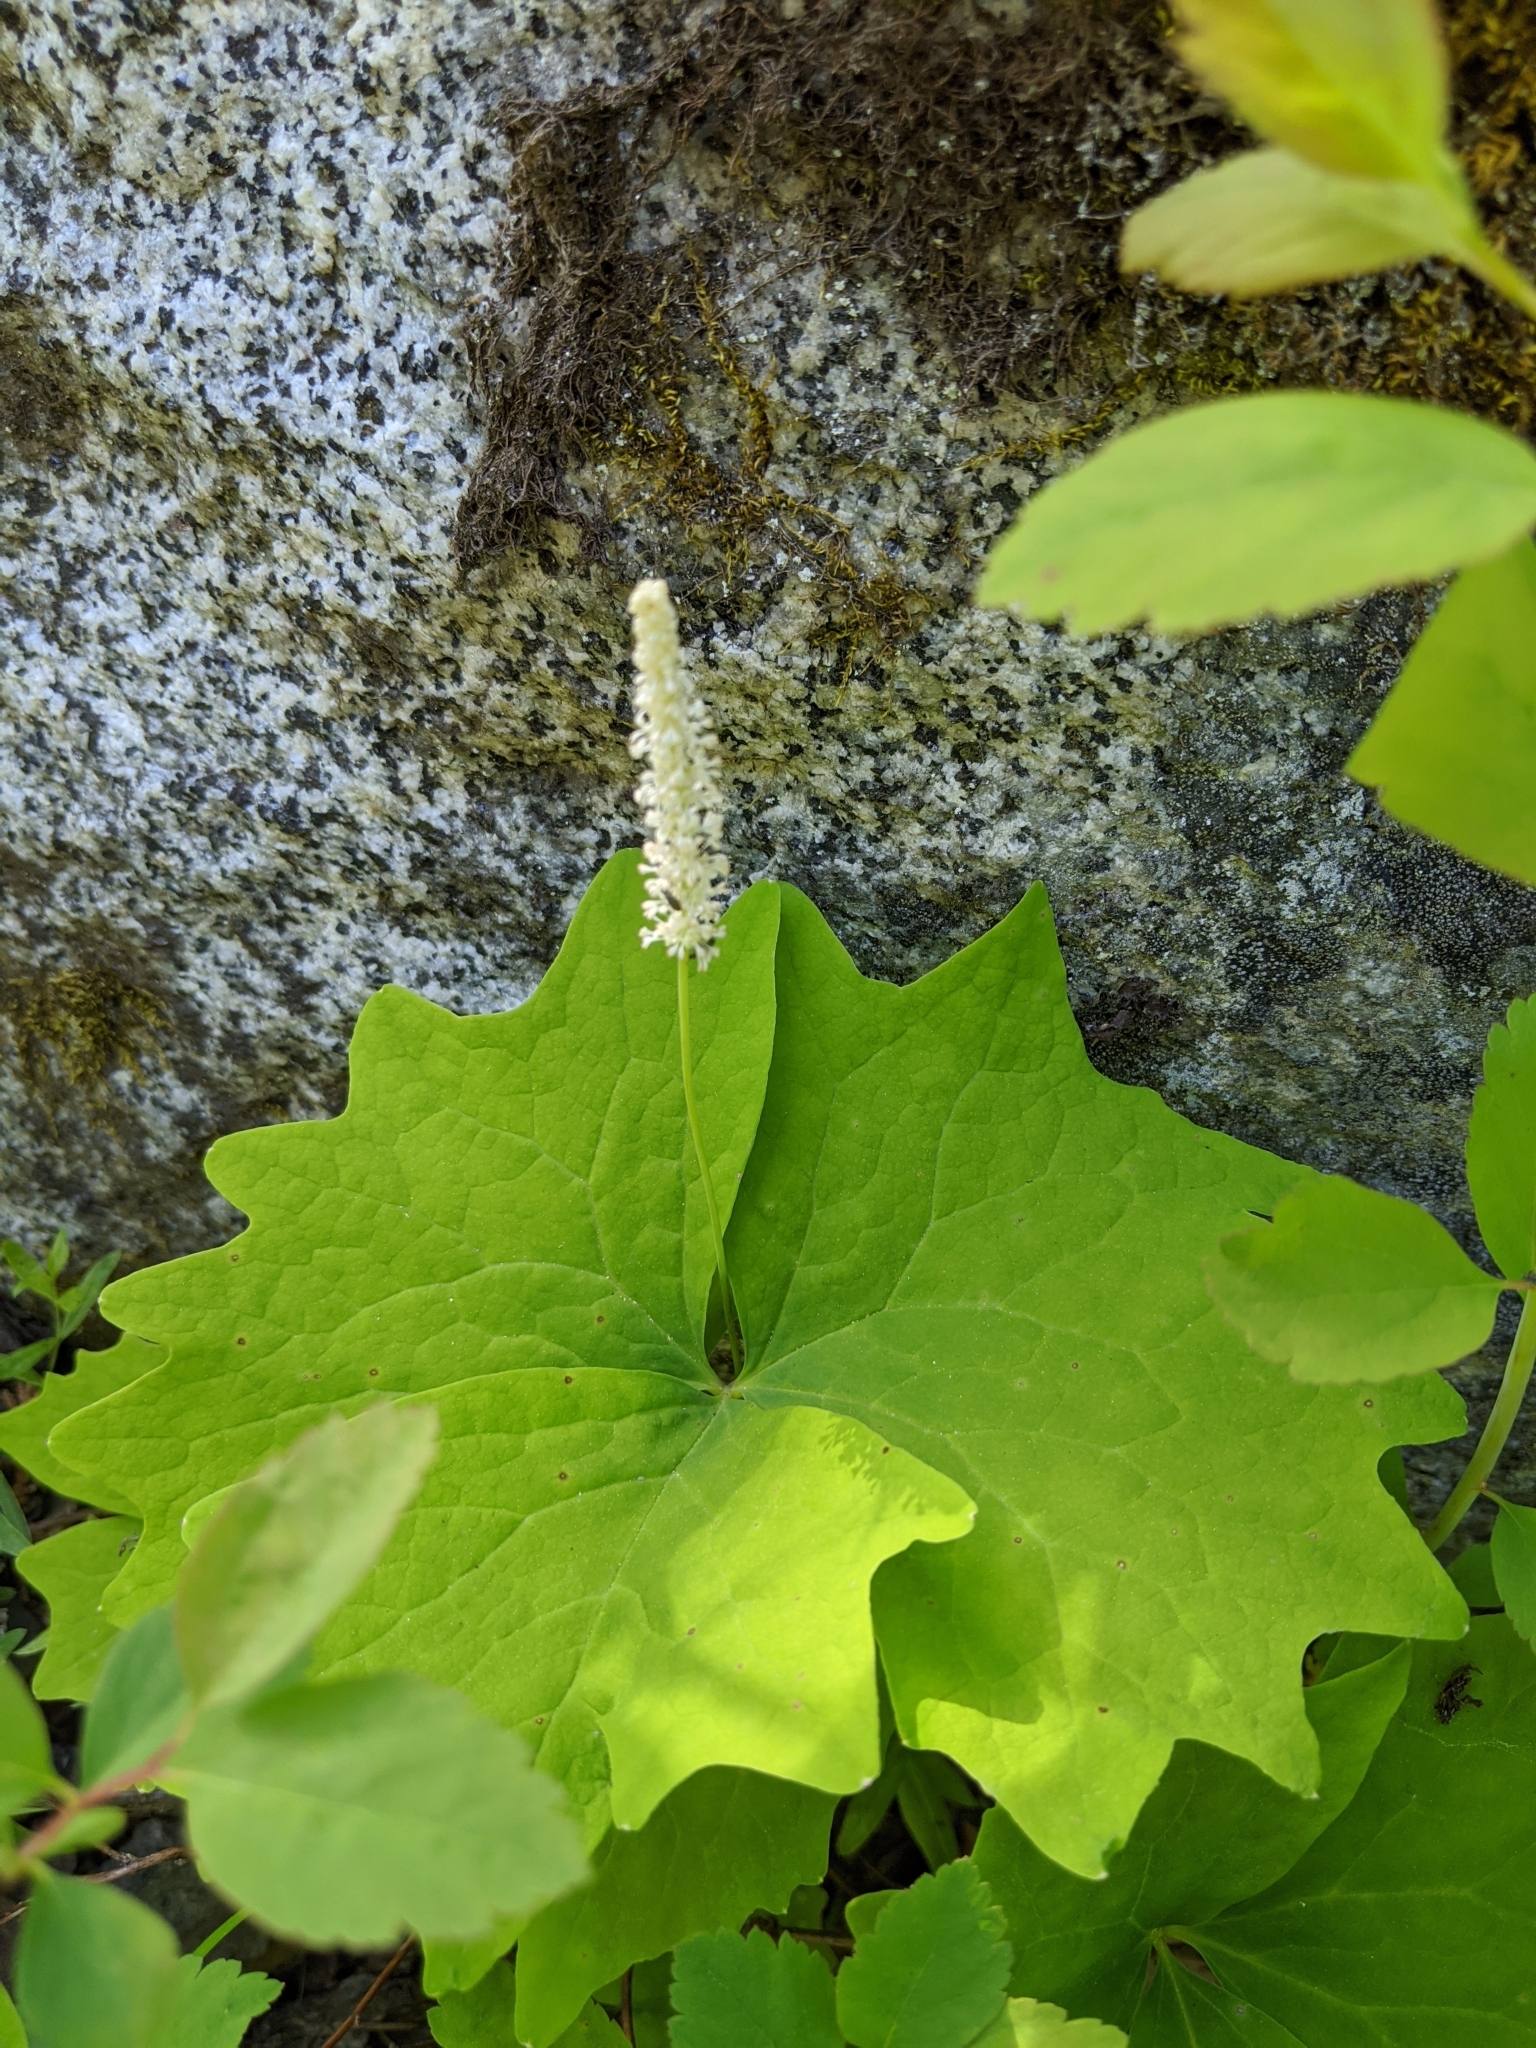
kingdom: Plantae
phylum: Tracheophyta
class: Magnoliopsida
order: Ranunculales
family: Berberidaceae
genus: Achlys
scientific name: Achlys triphylla
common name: Vanilla-leaf
